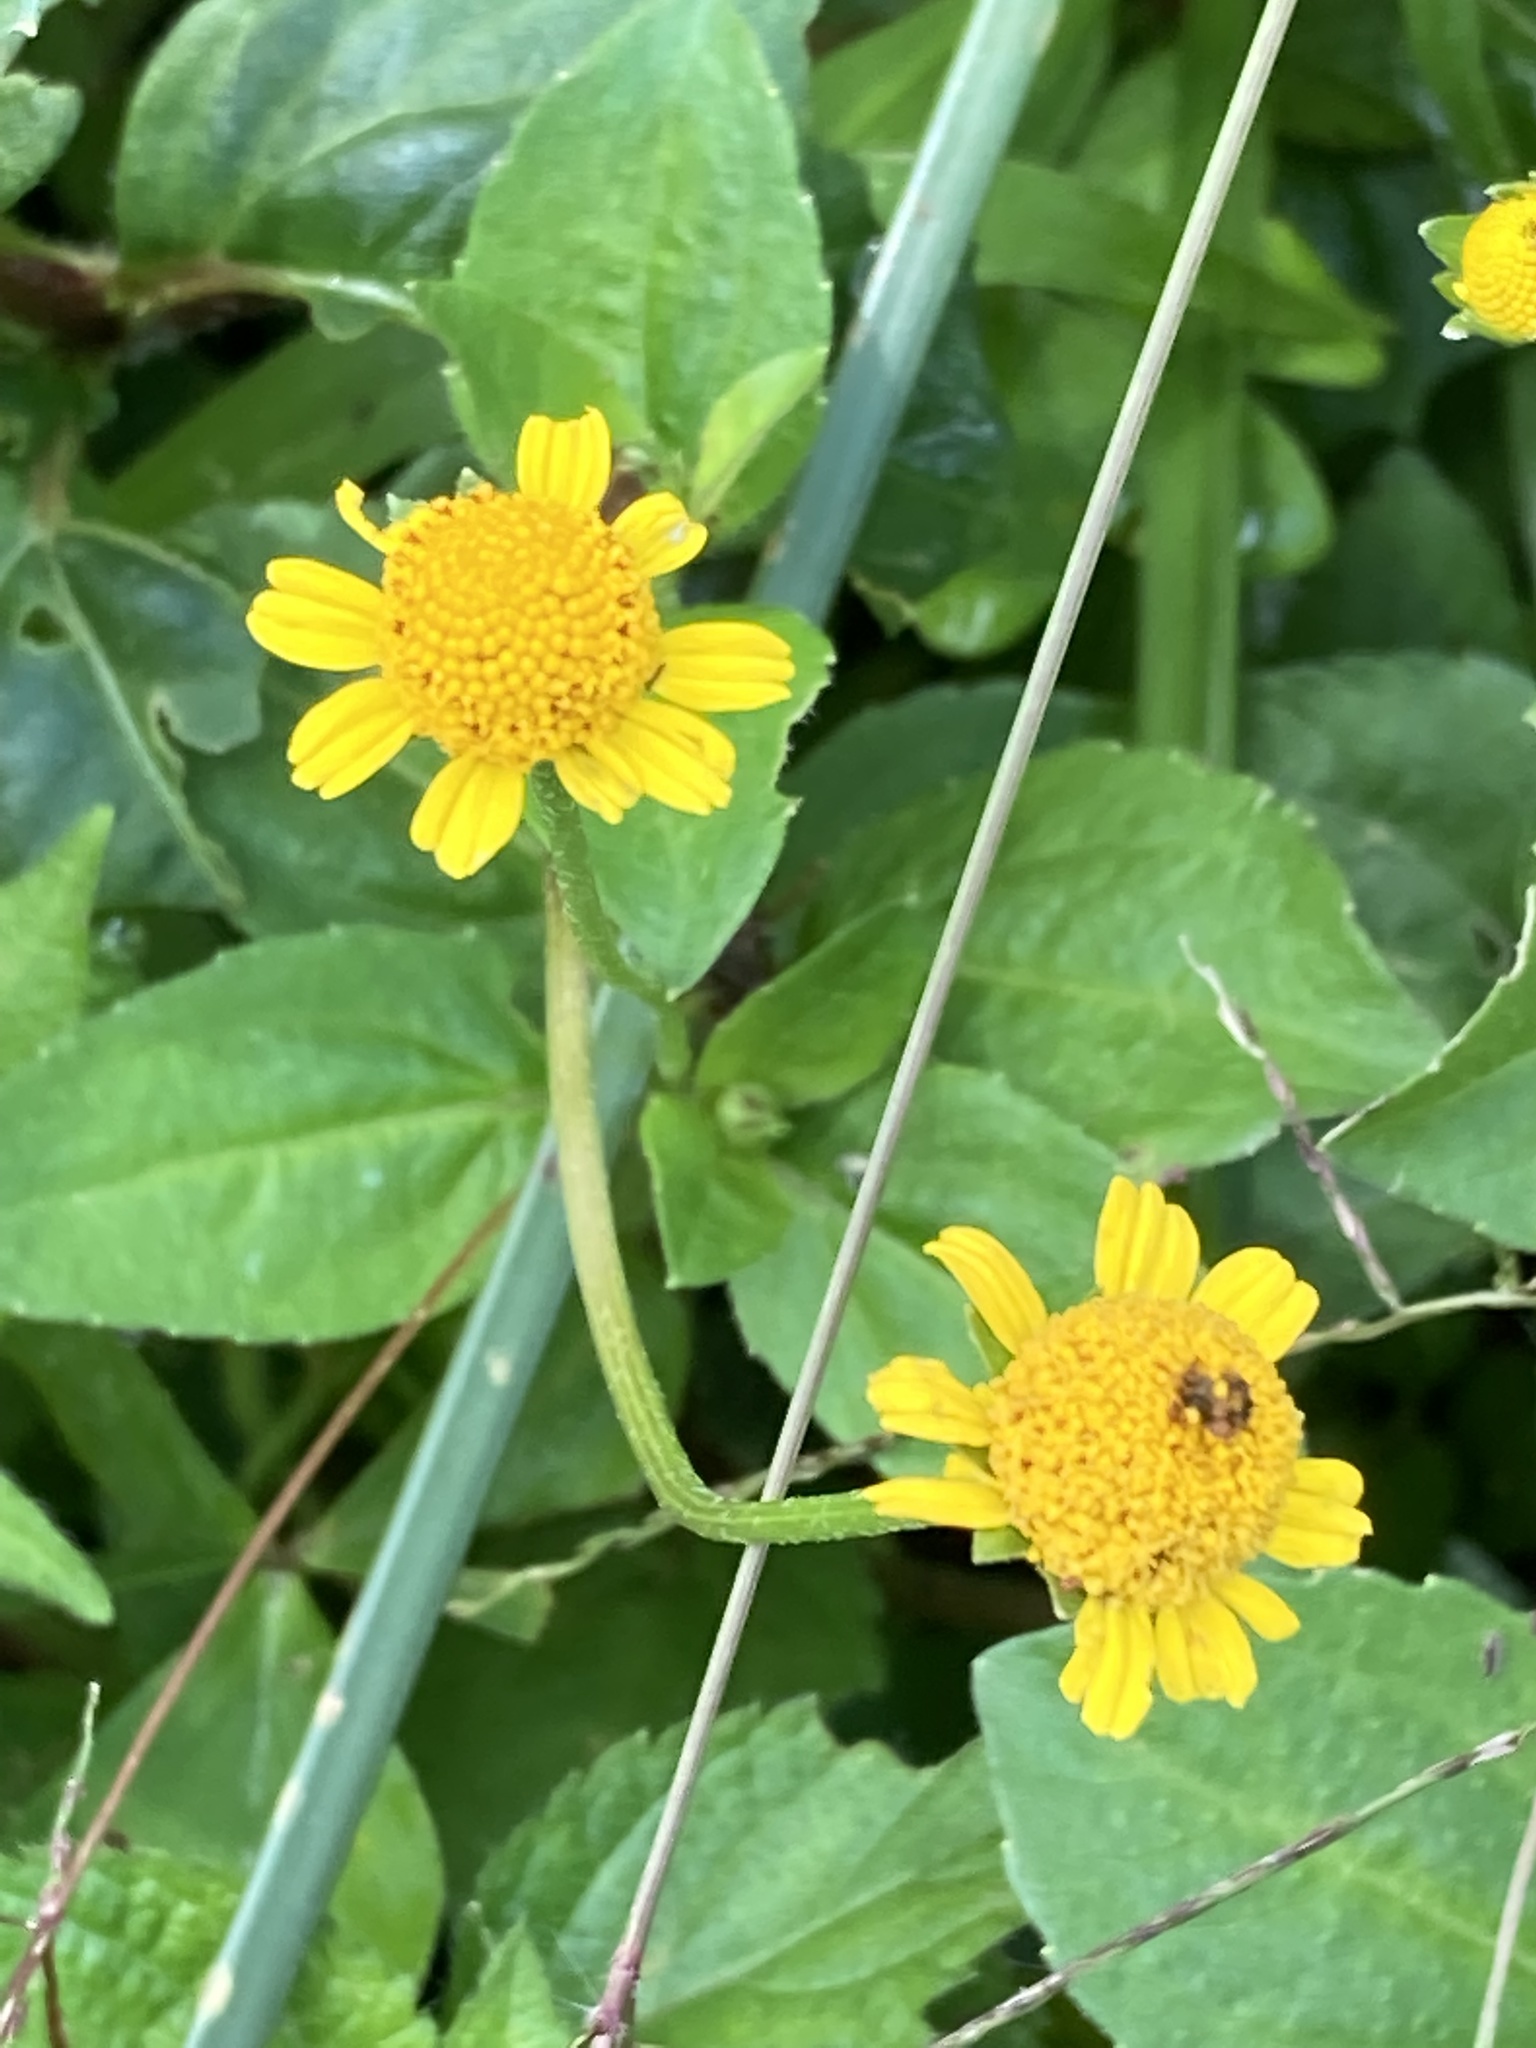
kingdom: Plantae
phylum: Tracheophyta
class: Magnoliopsida
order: Asterales
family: Asteraceae
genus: Acmella
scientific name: Acmella repens
